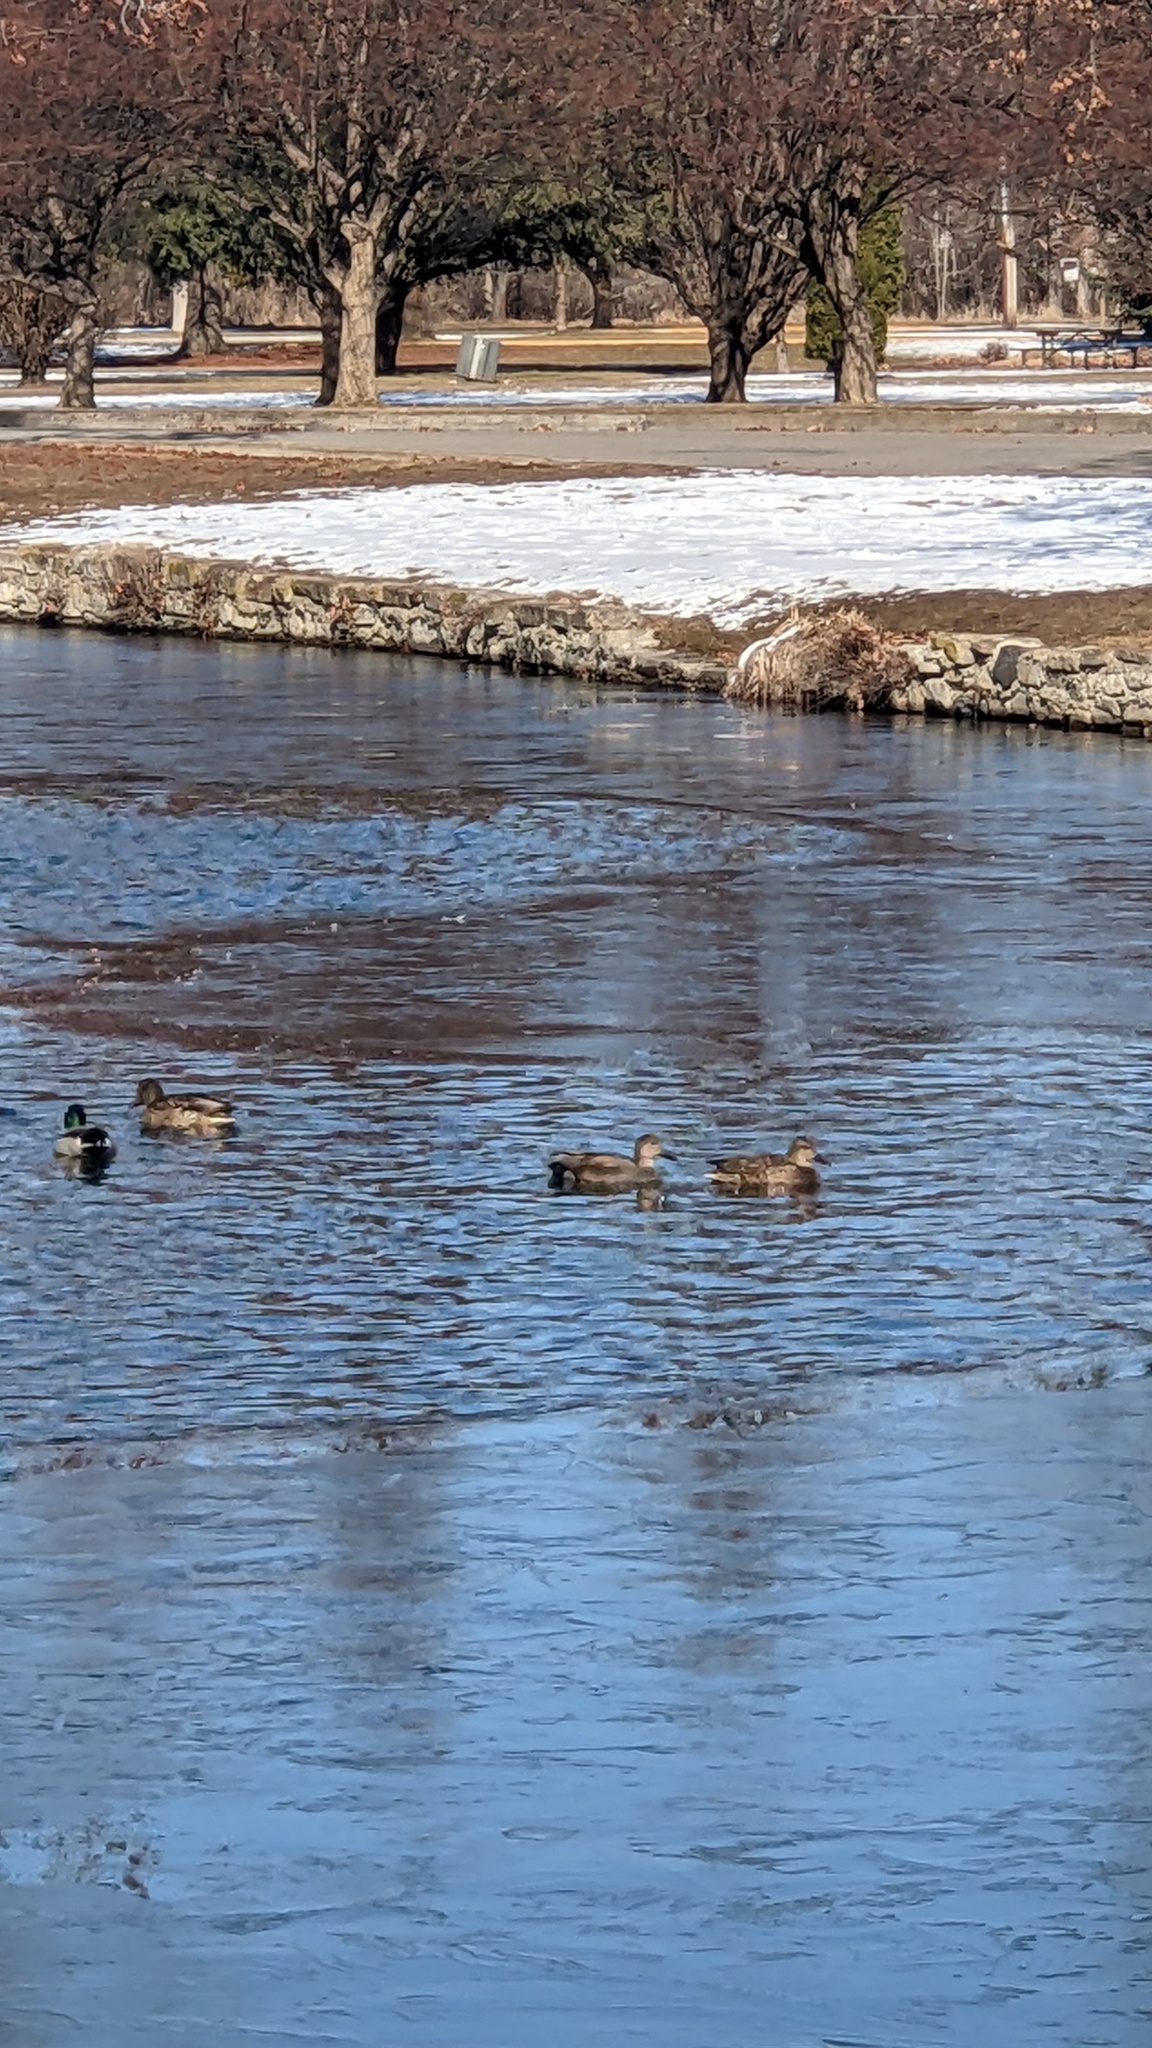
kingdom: Animalia
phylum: Chordata
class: Aves
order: Anseriformes
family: Anatidae
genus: Mareca
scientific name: Mareca strepera
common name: Gadwall
